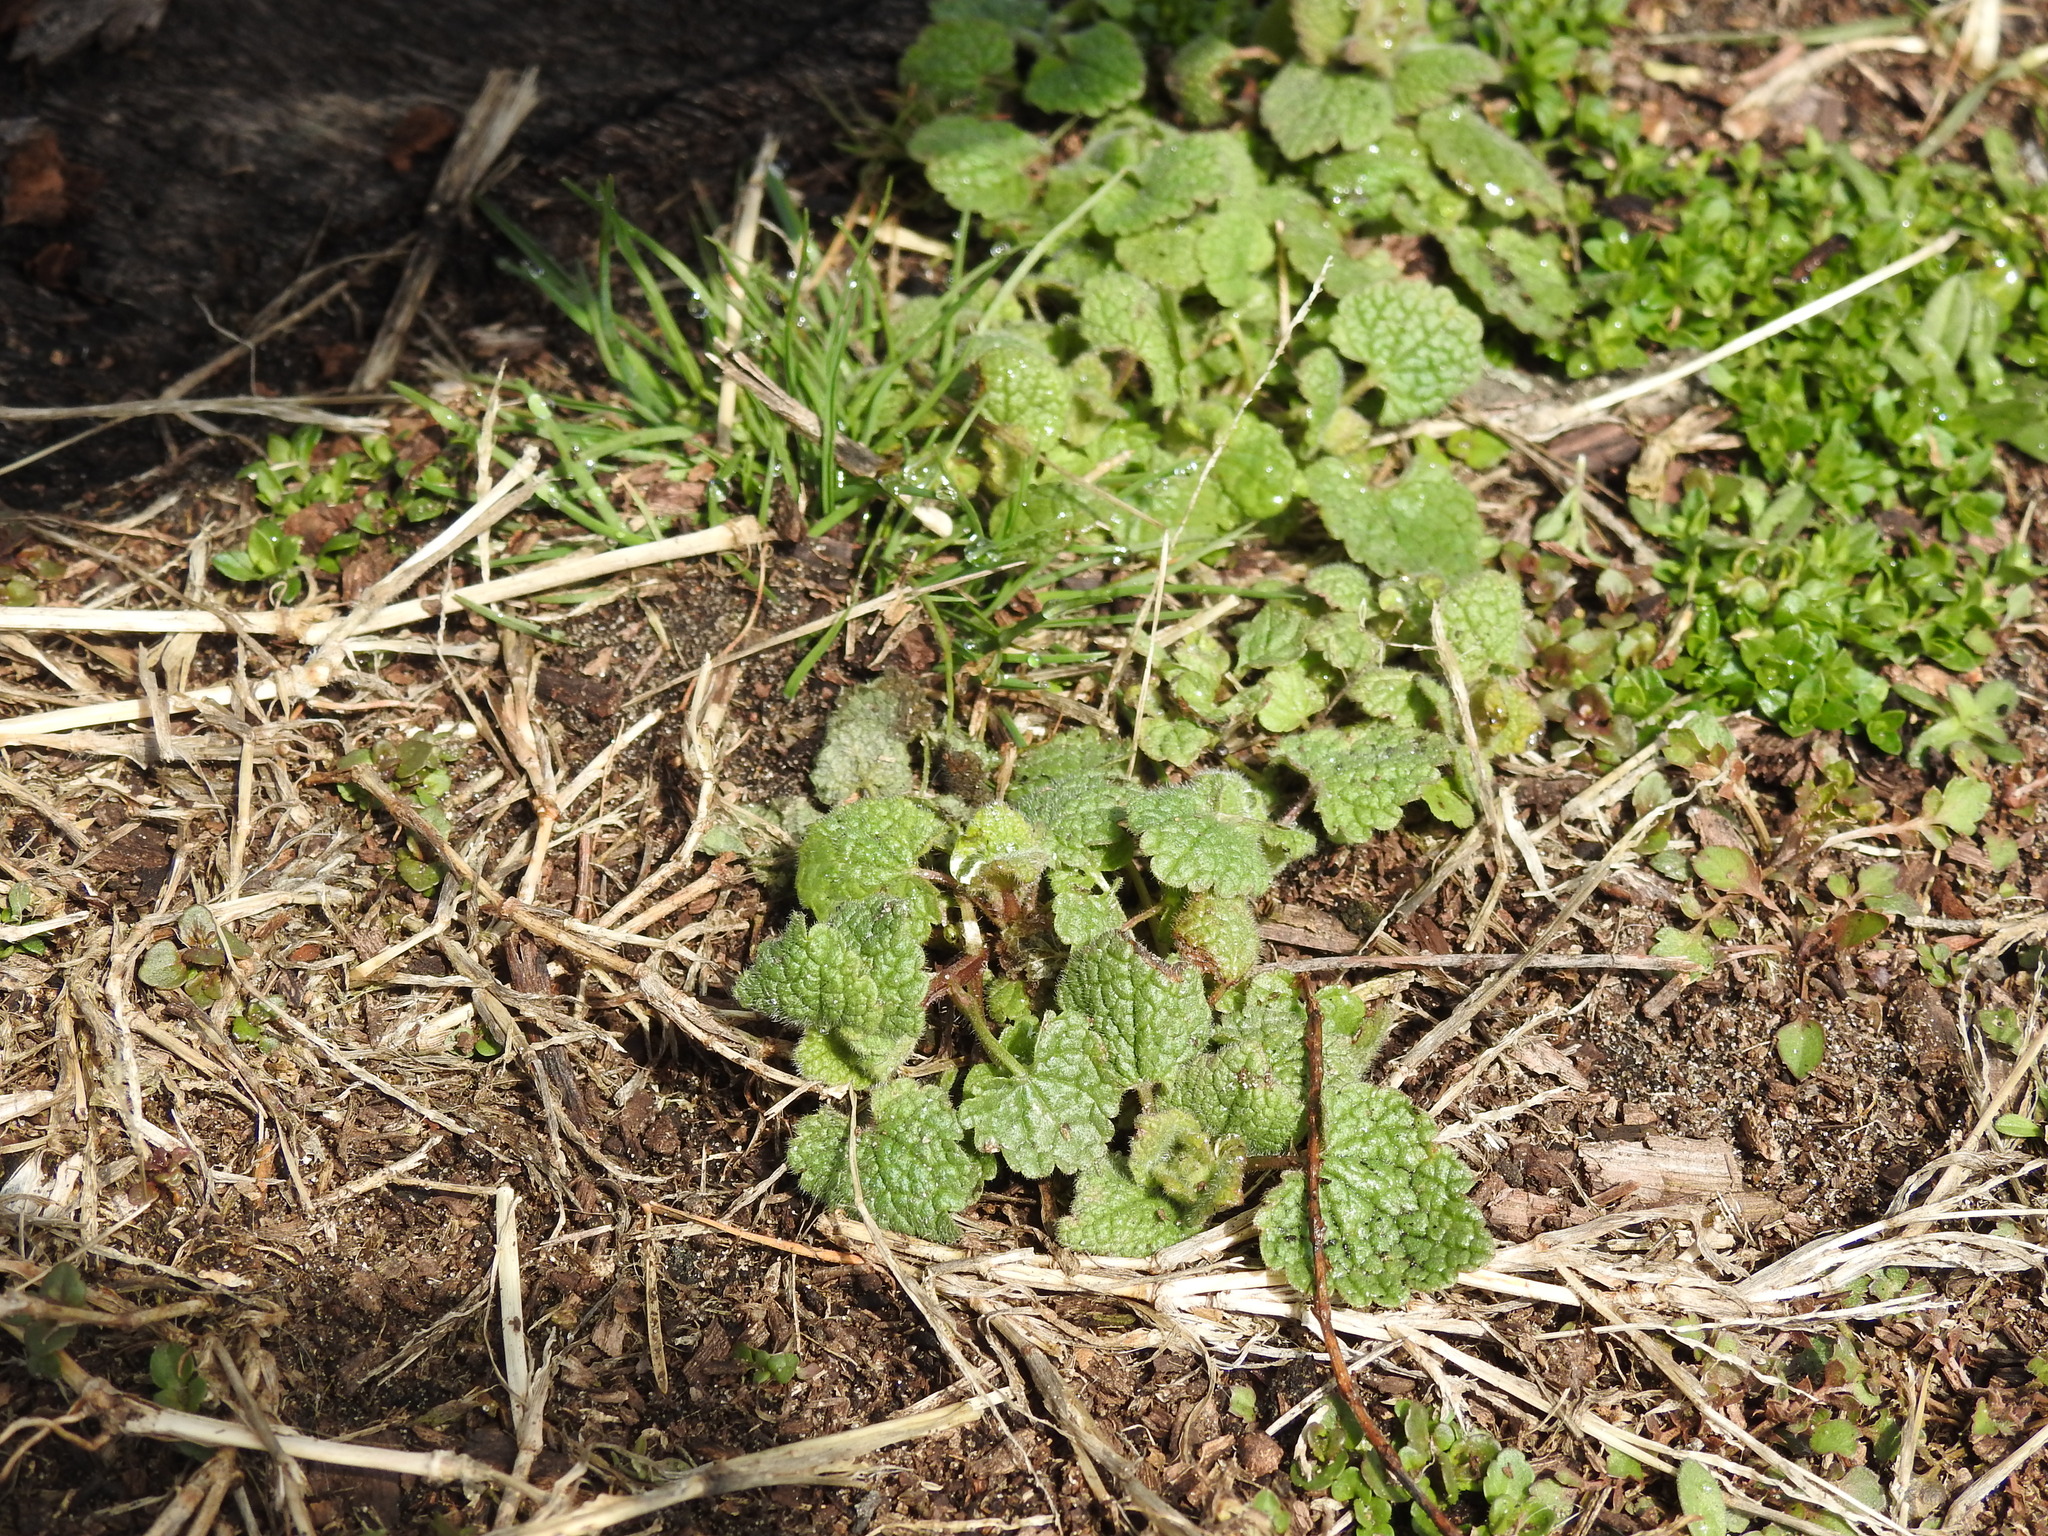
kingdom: Plantae
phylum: Tracheophyta
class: Magnoliopsida
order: Lamiales
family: Lamiaceae
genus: Lamium
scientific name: Lamium purpureum
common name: Red dead-nettle
